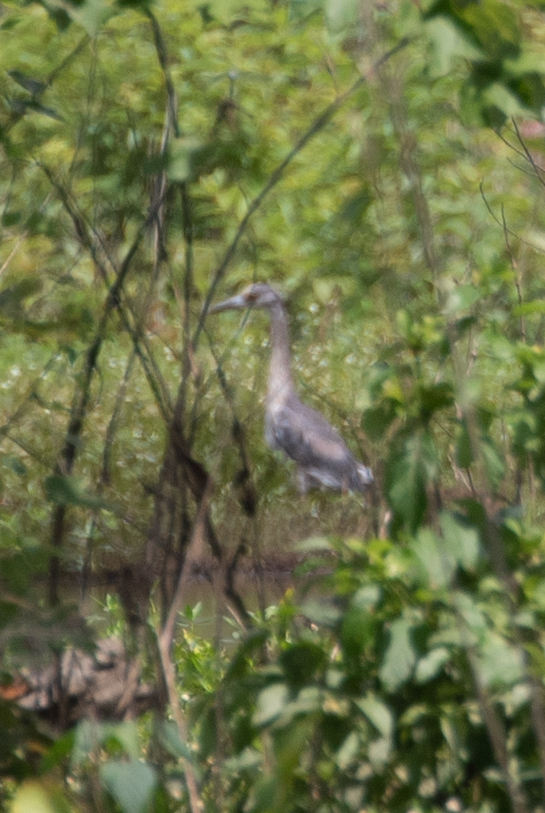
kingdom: Animalia
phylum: Chordata
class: Aves
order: Pelecaniformes
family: Ardeidae
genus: Nyctanassa
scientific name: Nyctanassa violacea
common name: Yellow-crowned night heron
